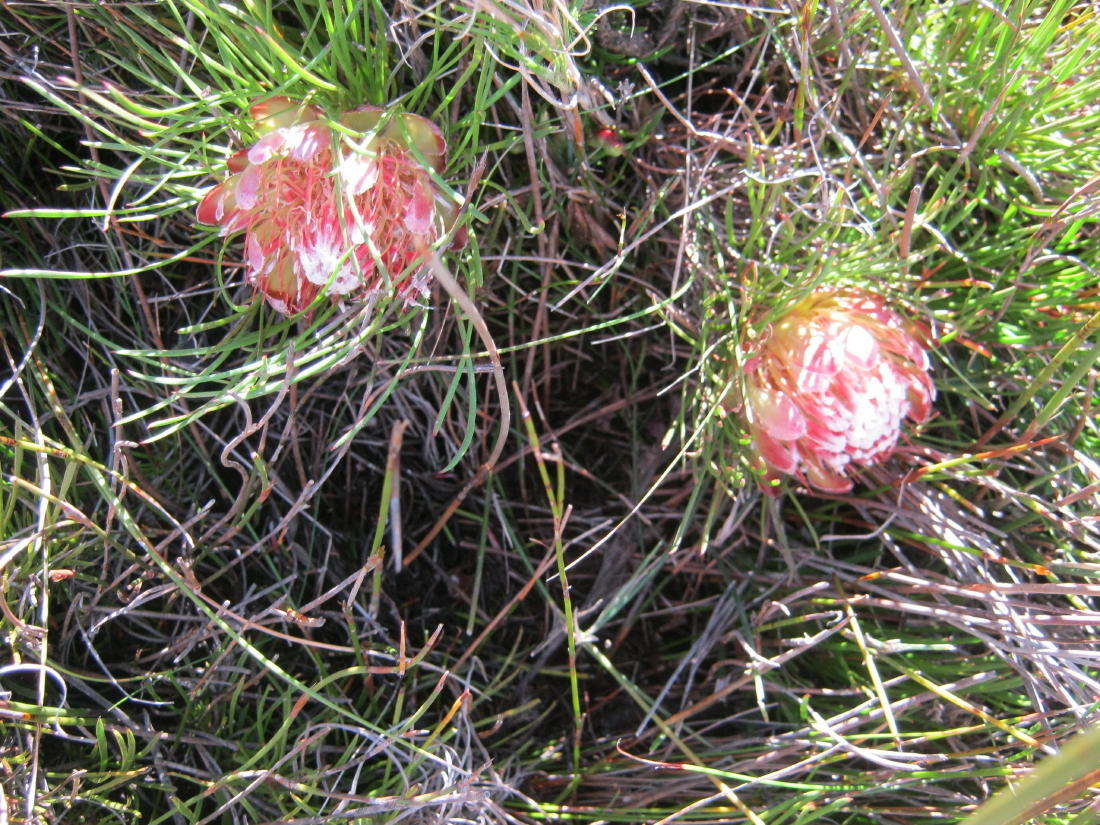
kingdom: Plantae
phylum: Tracheophyta
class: Magnoliopsida
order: Proteales
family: Proteaceae
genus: Protea
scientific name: Protea montana
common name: Swartberg sugarbush
